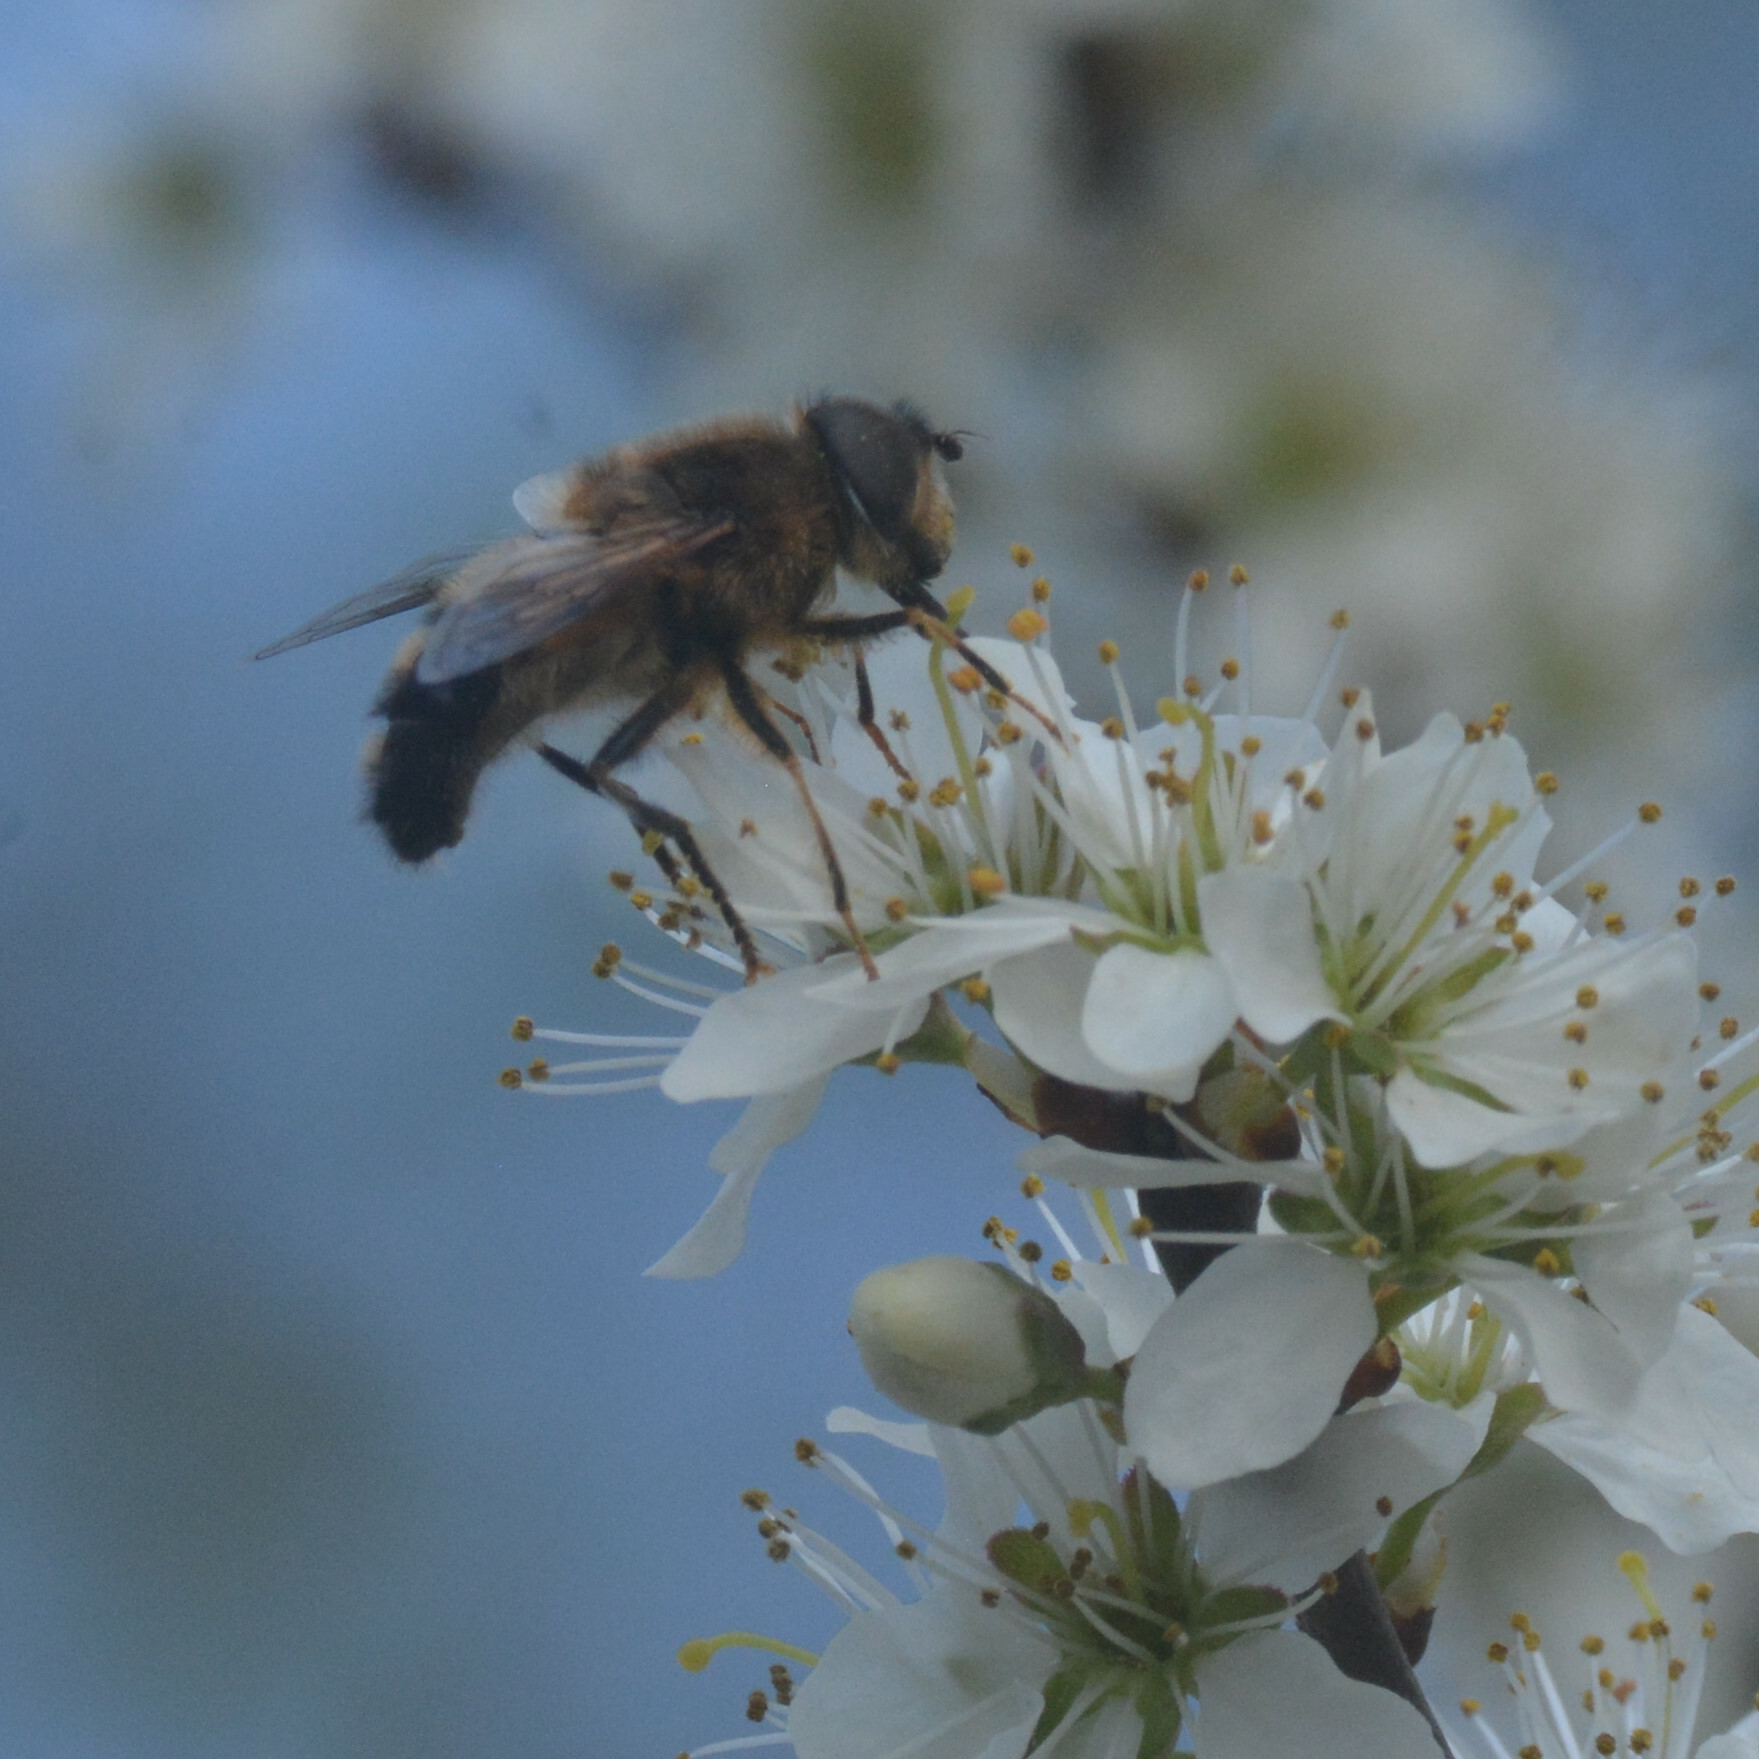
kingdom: Animalia
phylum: Arthropoda
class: Insecta
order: Diptera
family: Syrphidae
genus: Eristalis
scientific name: Eristalis pertinax
